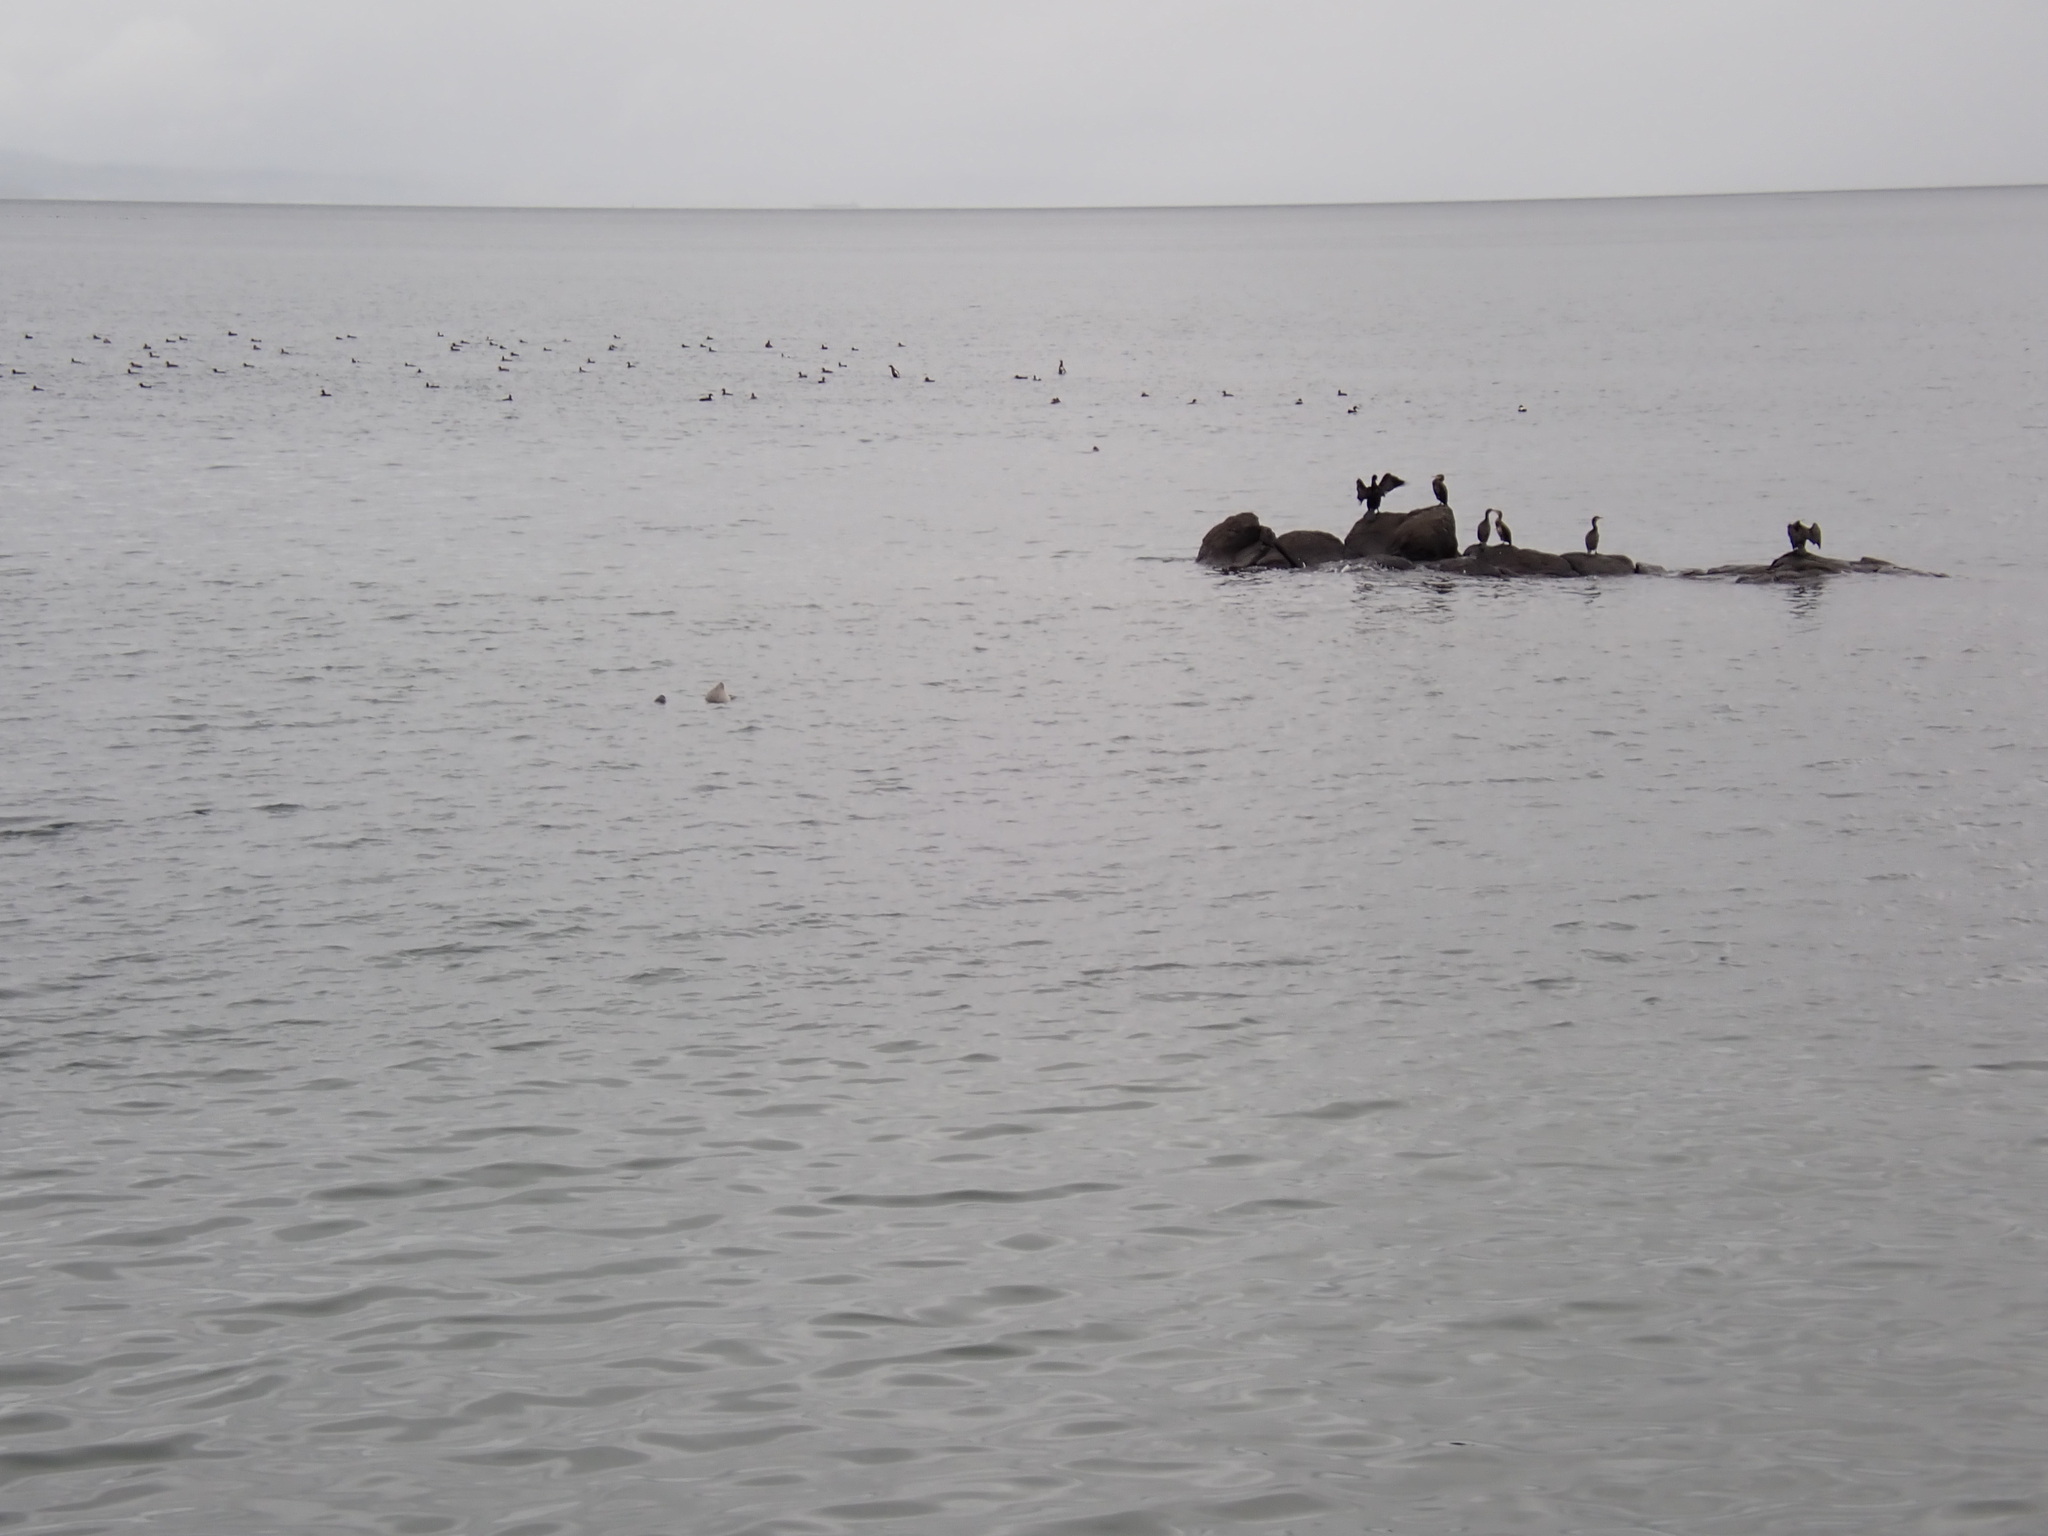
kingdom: Animalia
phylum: Chordata
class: Aves
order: Suliformes
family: Phalacrocoracidae
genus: Phalacrocorax
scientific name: Phalacrocorax carbo
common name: Great cormorant
